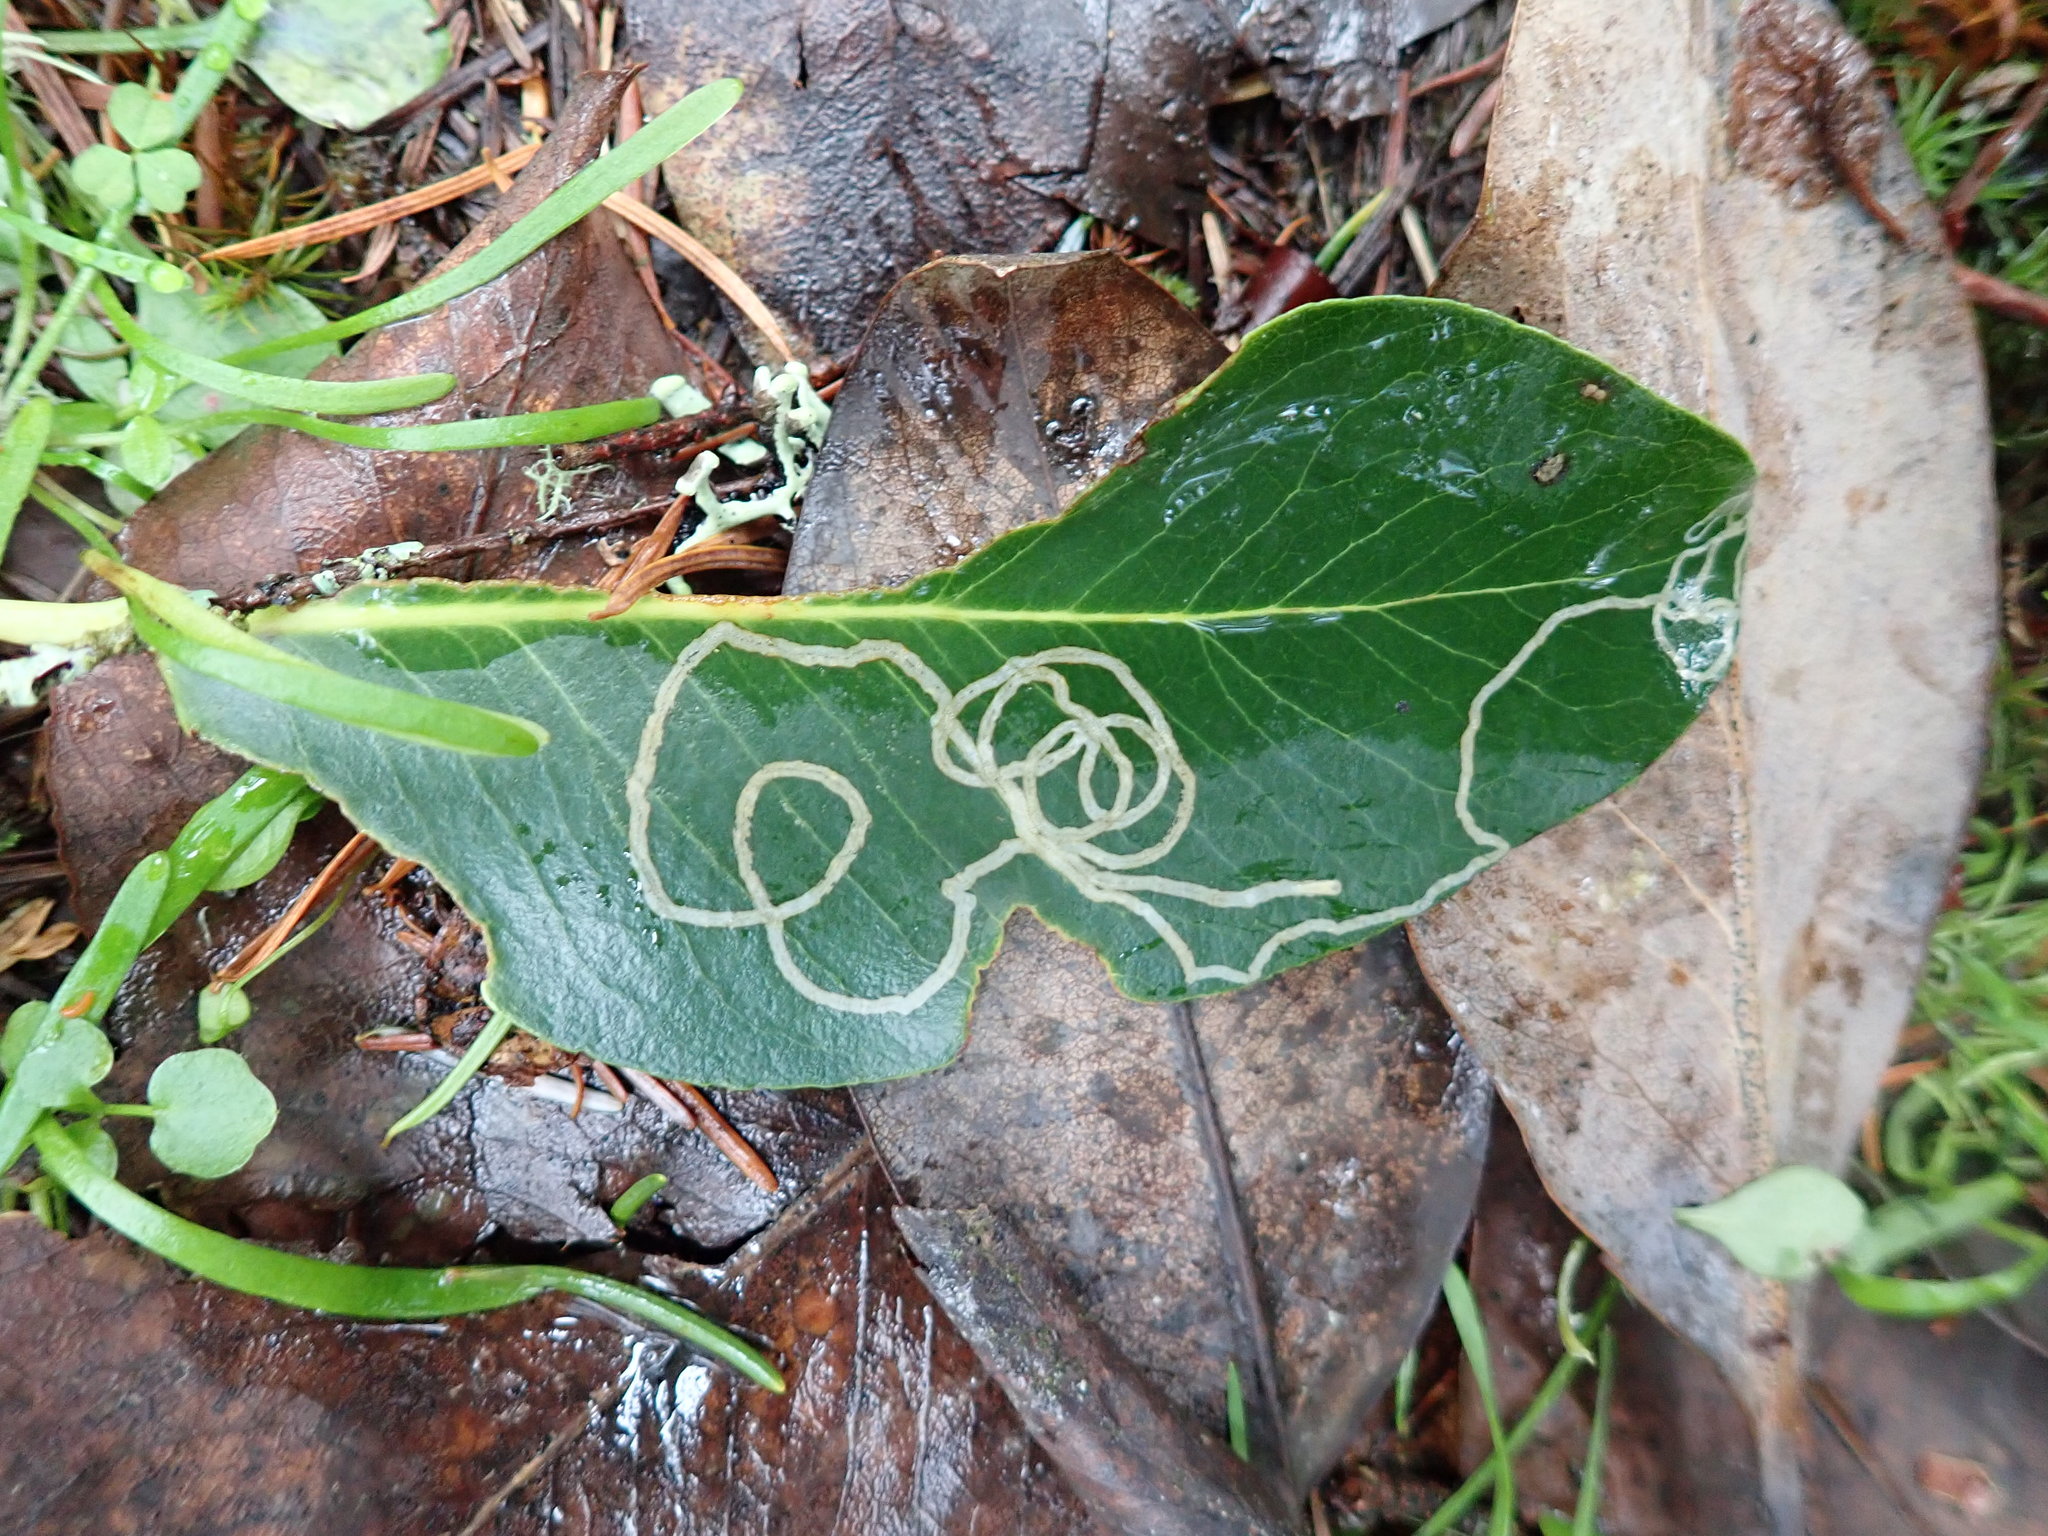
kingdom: Animalia
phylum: Arthropoda
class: Insecta
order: Lepidoptera
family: Gracillariidae
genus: Marmara
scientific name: Marmara arbutiella
